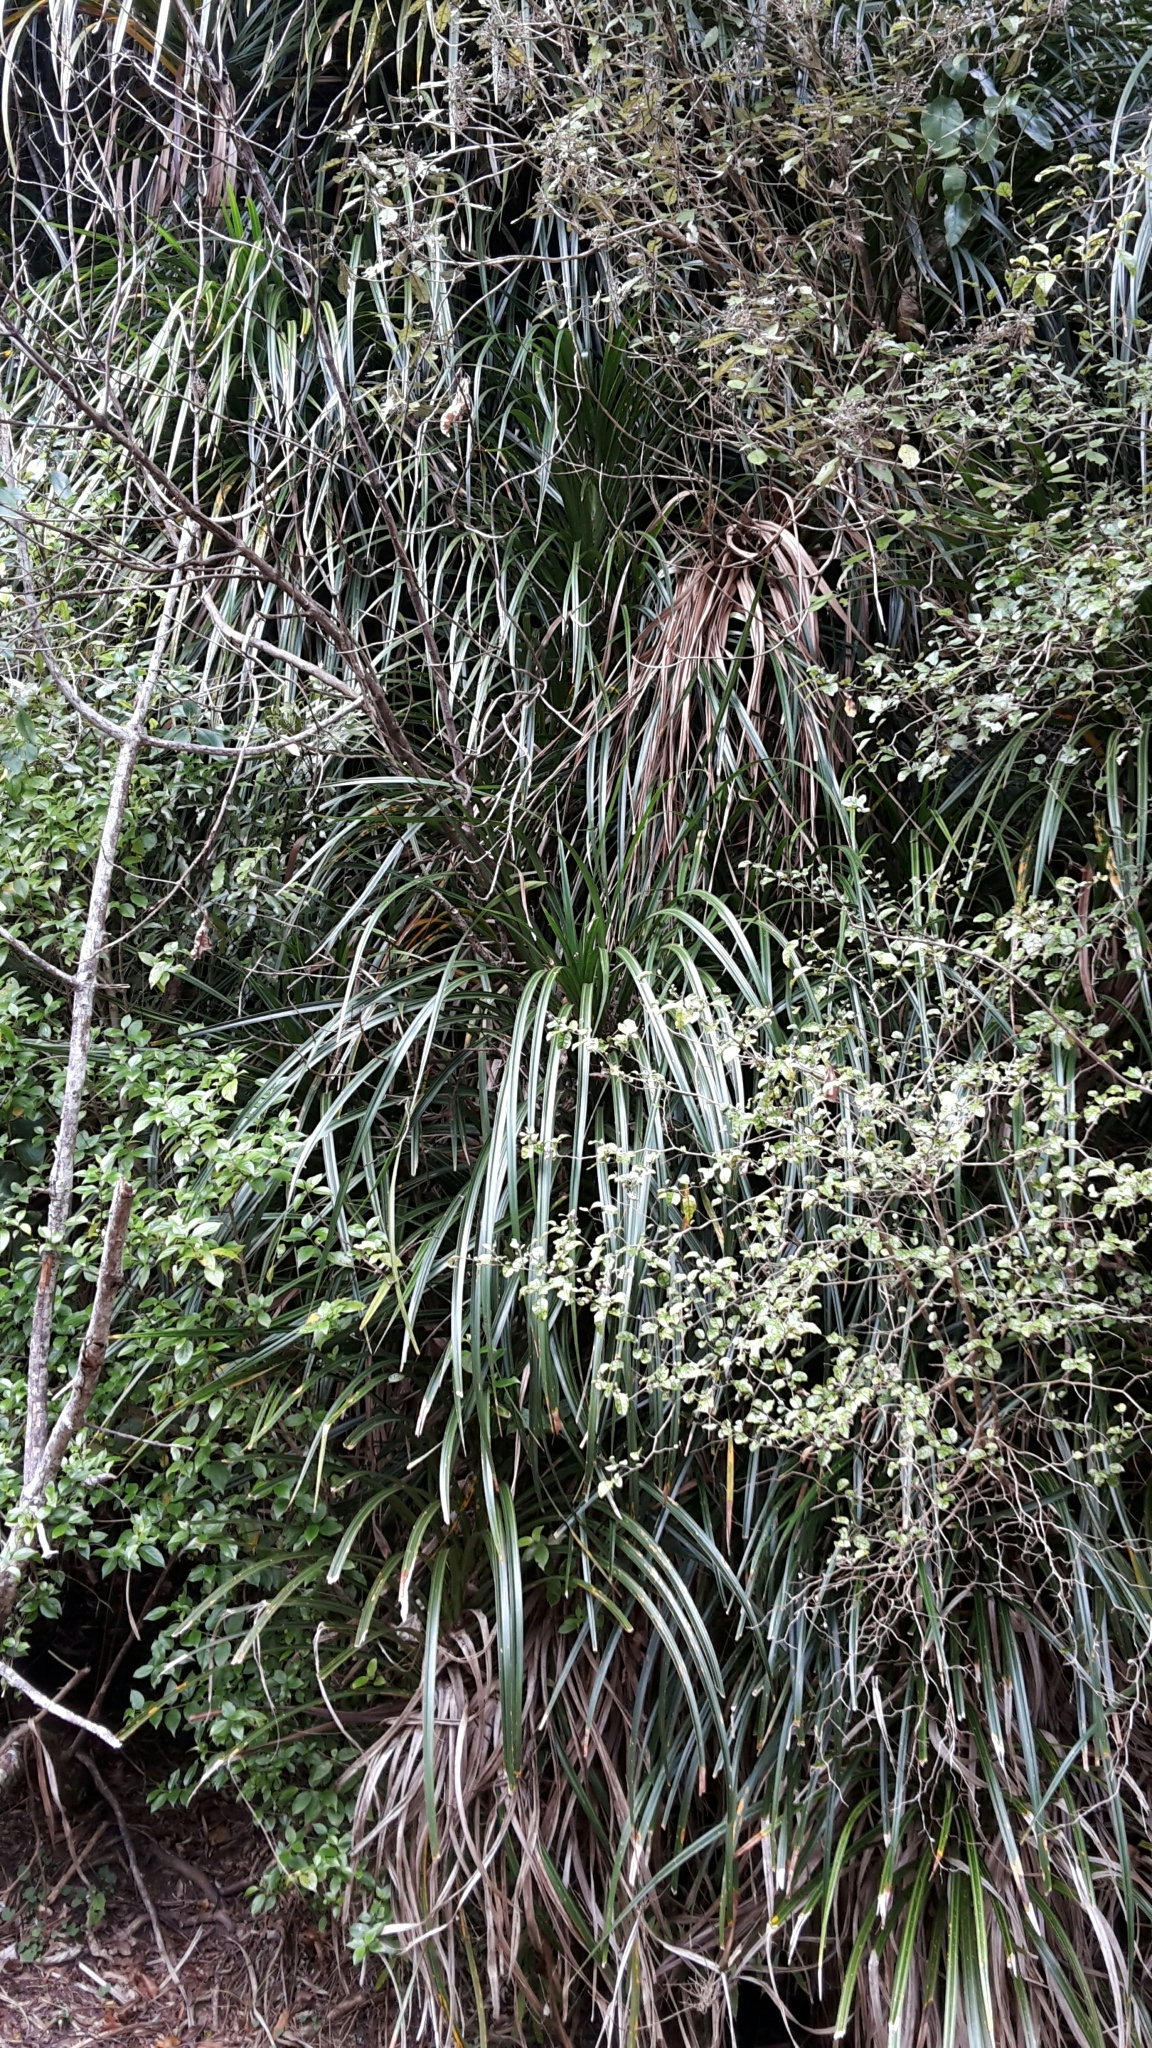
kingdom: Plantae
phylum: Tracheophyta
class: Liliopsida
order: Pandanales
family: Pandanaceae
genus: Freycinetia
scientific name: Freycinetia banksii
